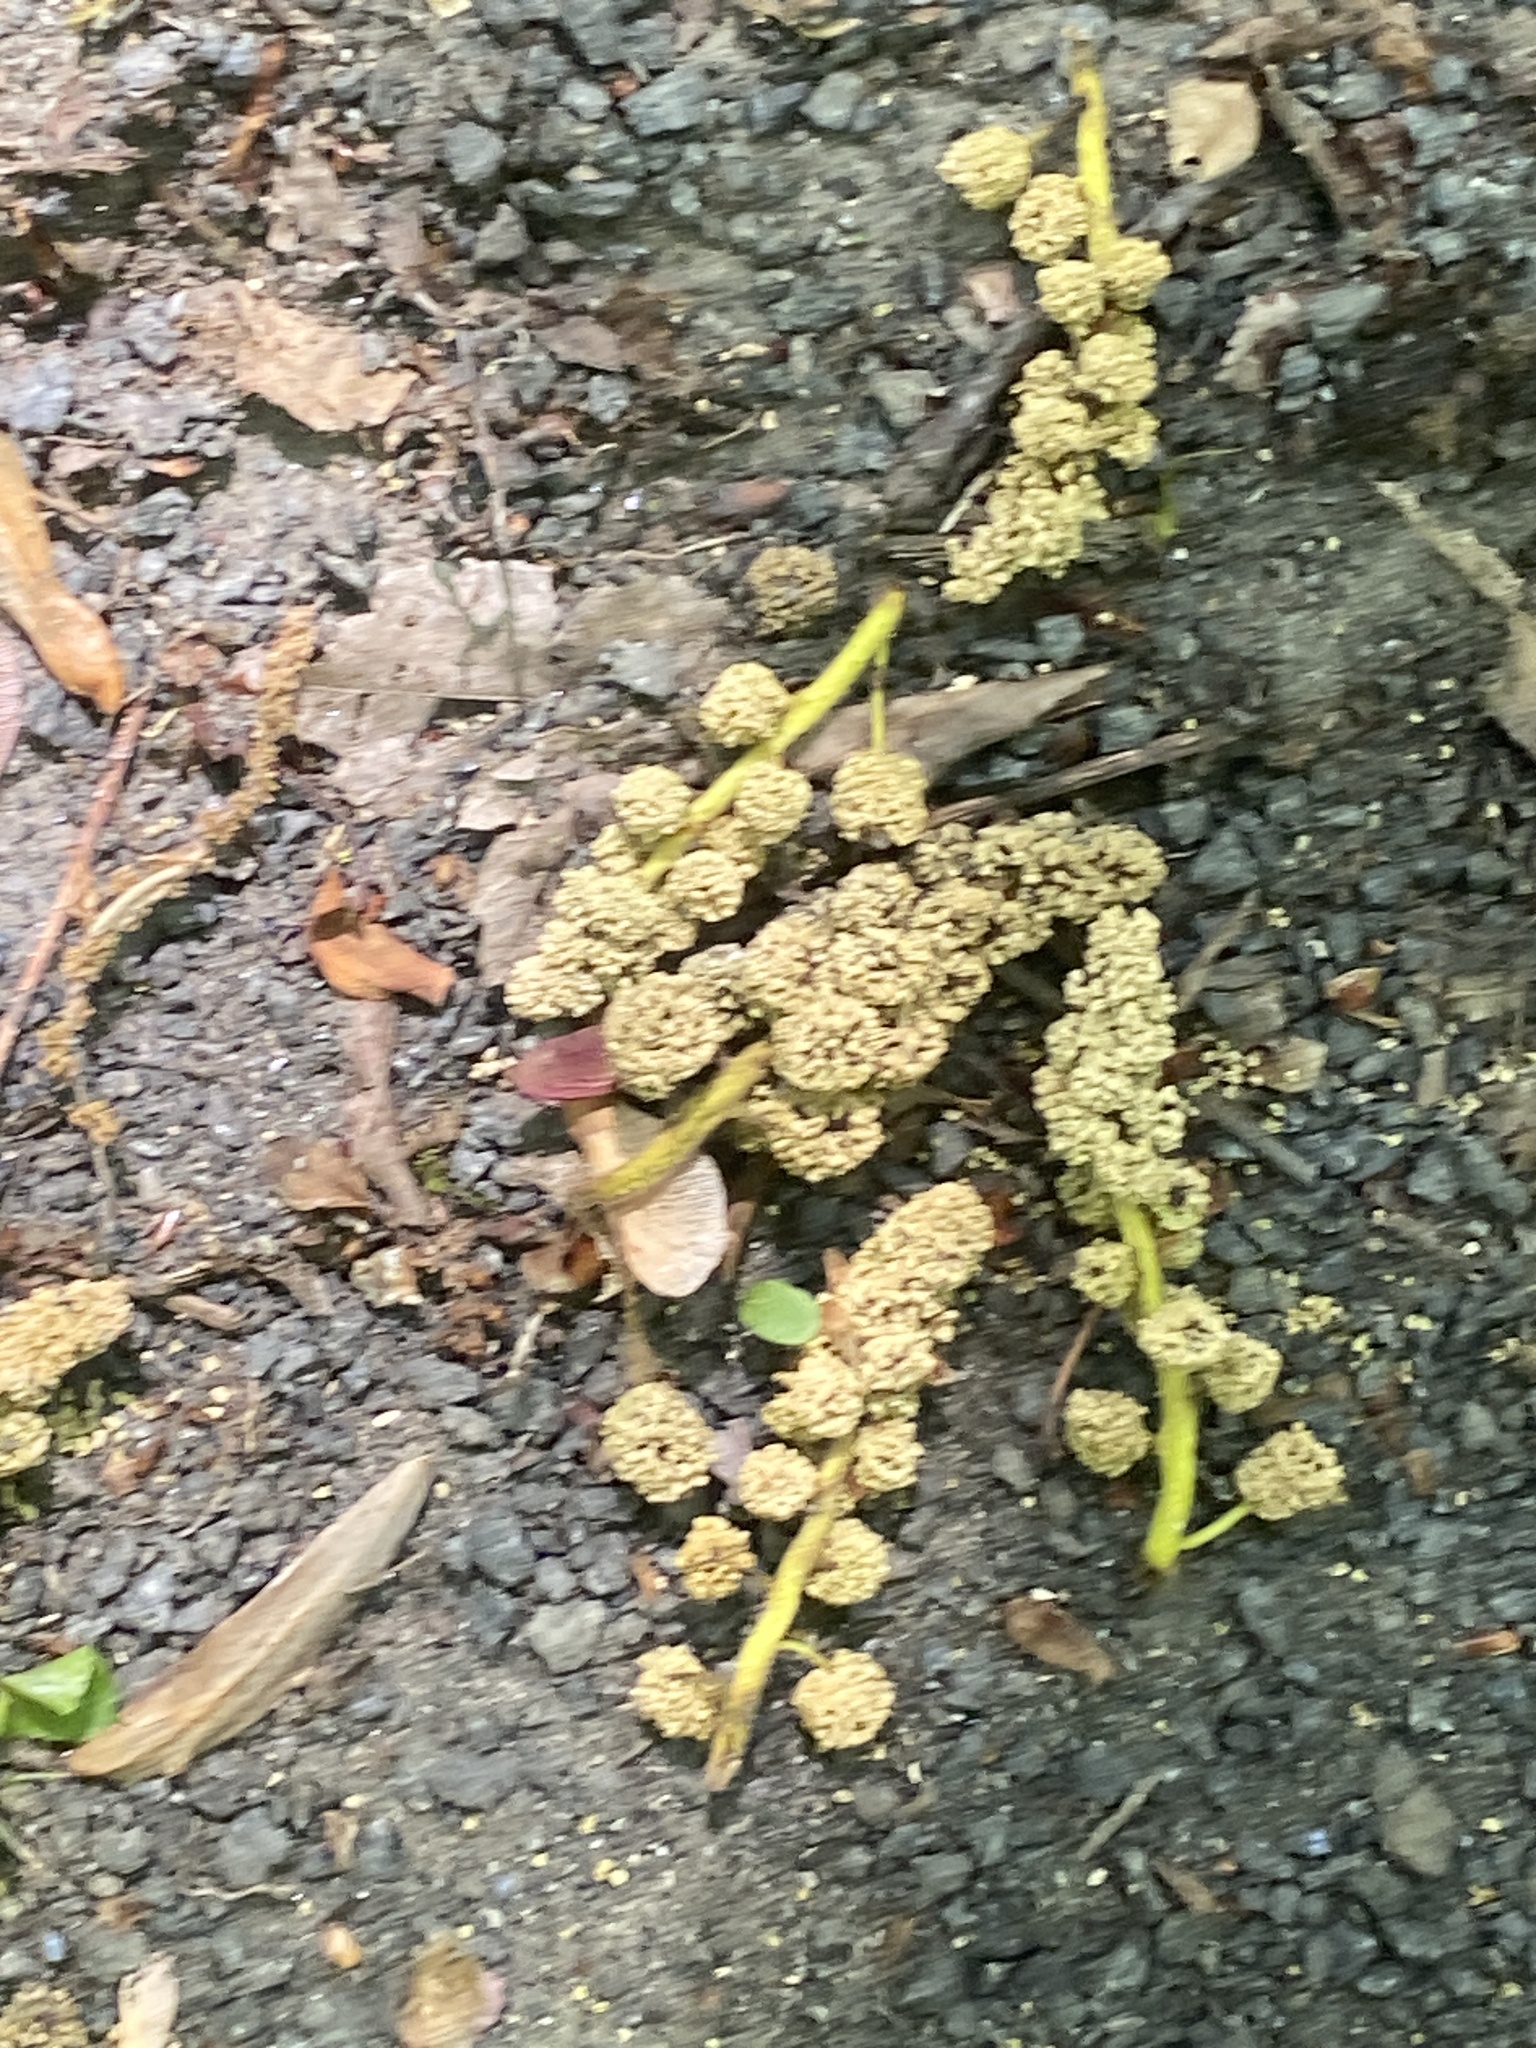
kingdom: Plantae
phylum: Tracheophyta
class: Magnoliopsida
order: Saxifragales
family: Altingiaceae
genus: Liquidambar
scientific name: Liquidambar styraciflua
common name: Sweet gum
